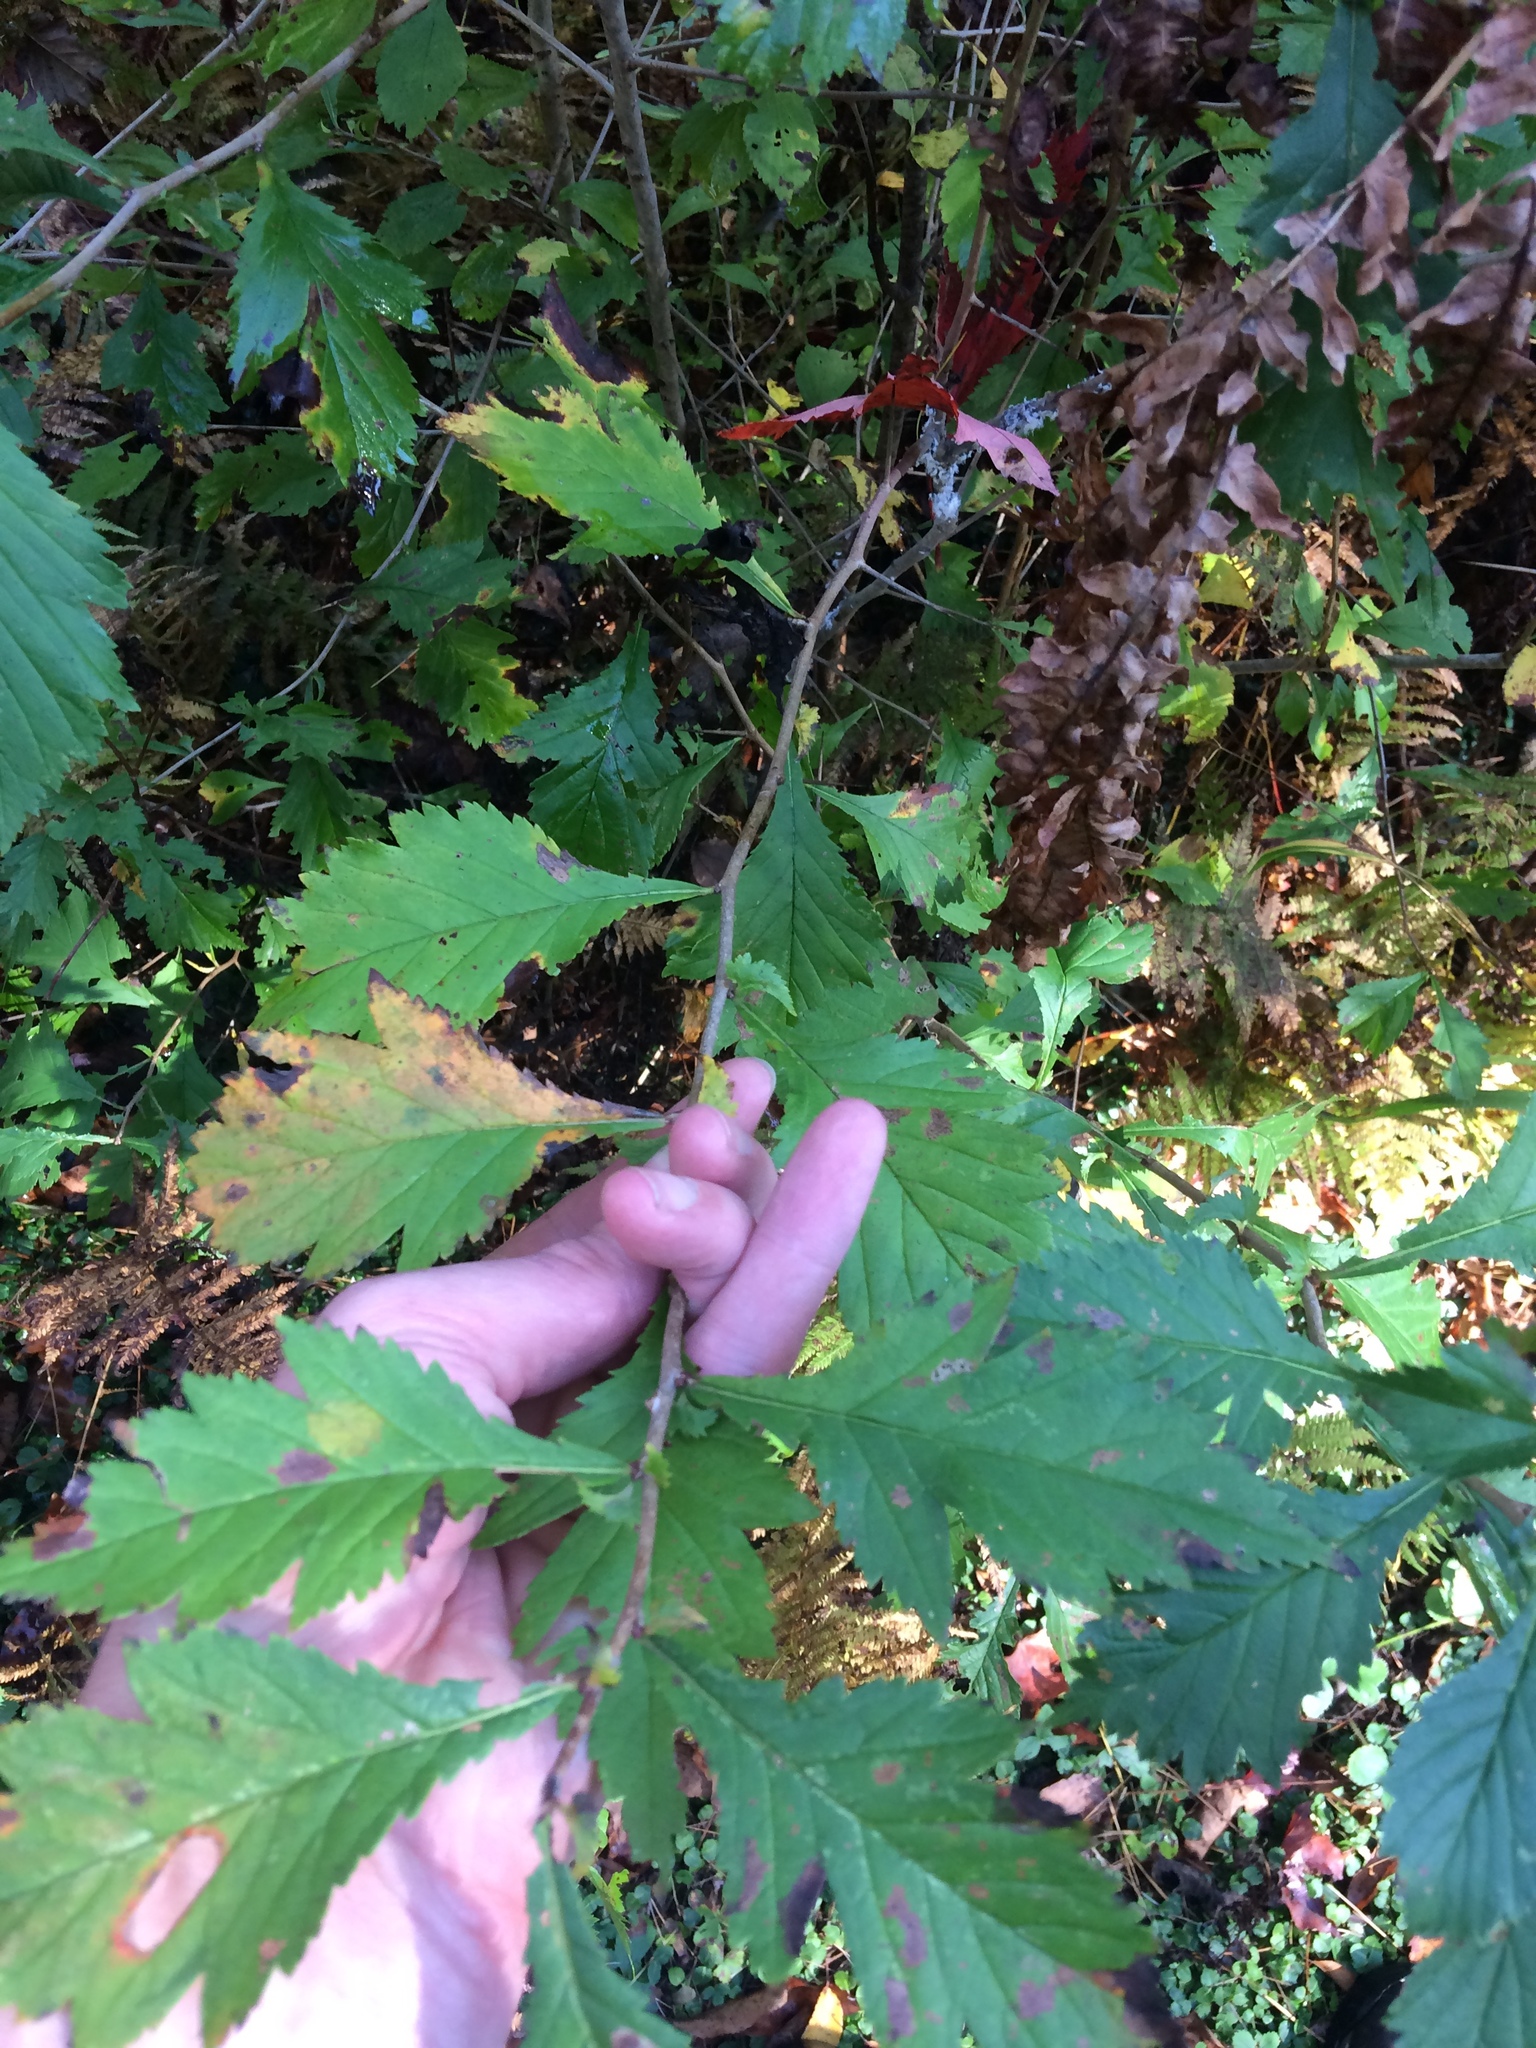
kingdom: Plantae
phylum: Tracheophyta
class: Magnoliopsida
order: Rosales
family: Rosaceae
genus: Crataegus
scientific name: Crataegus
